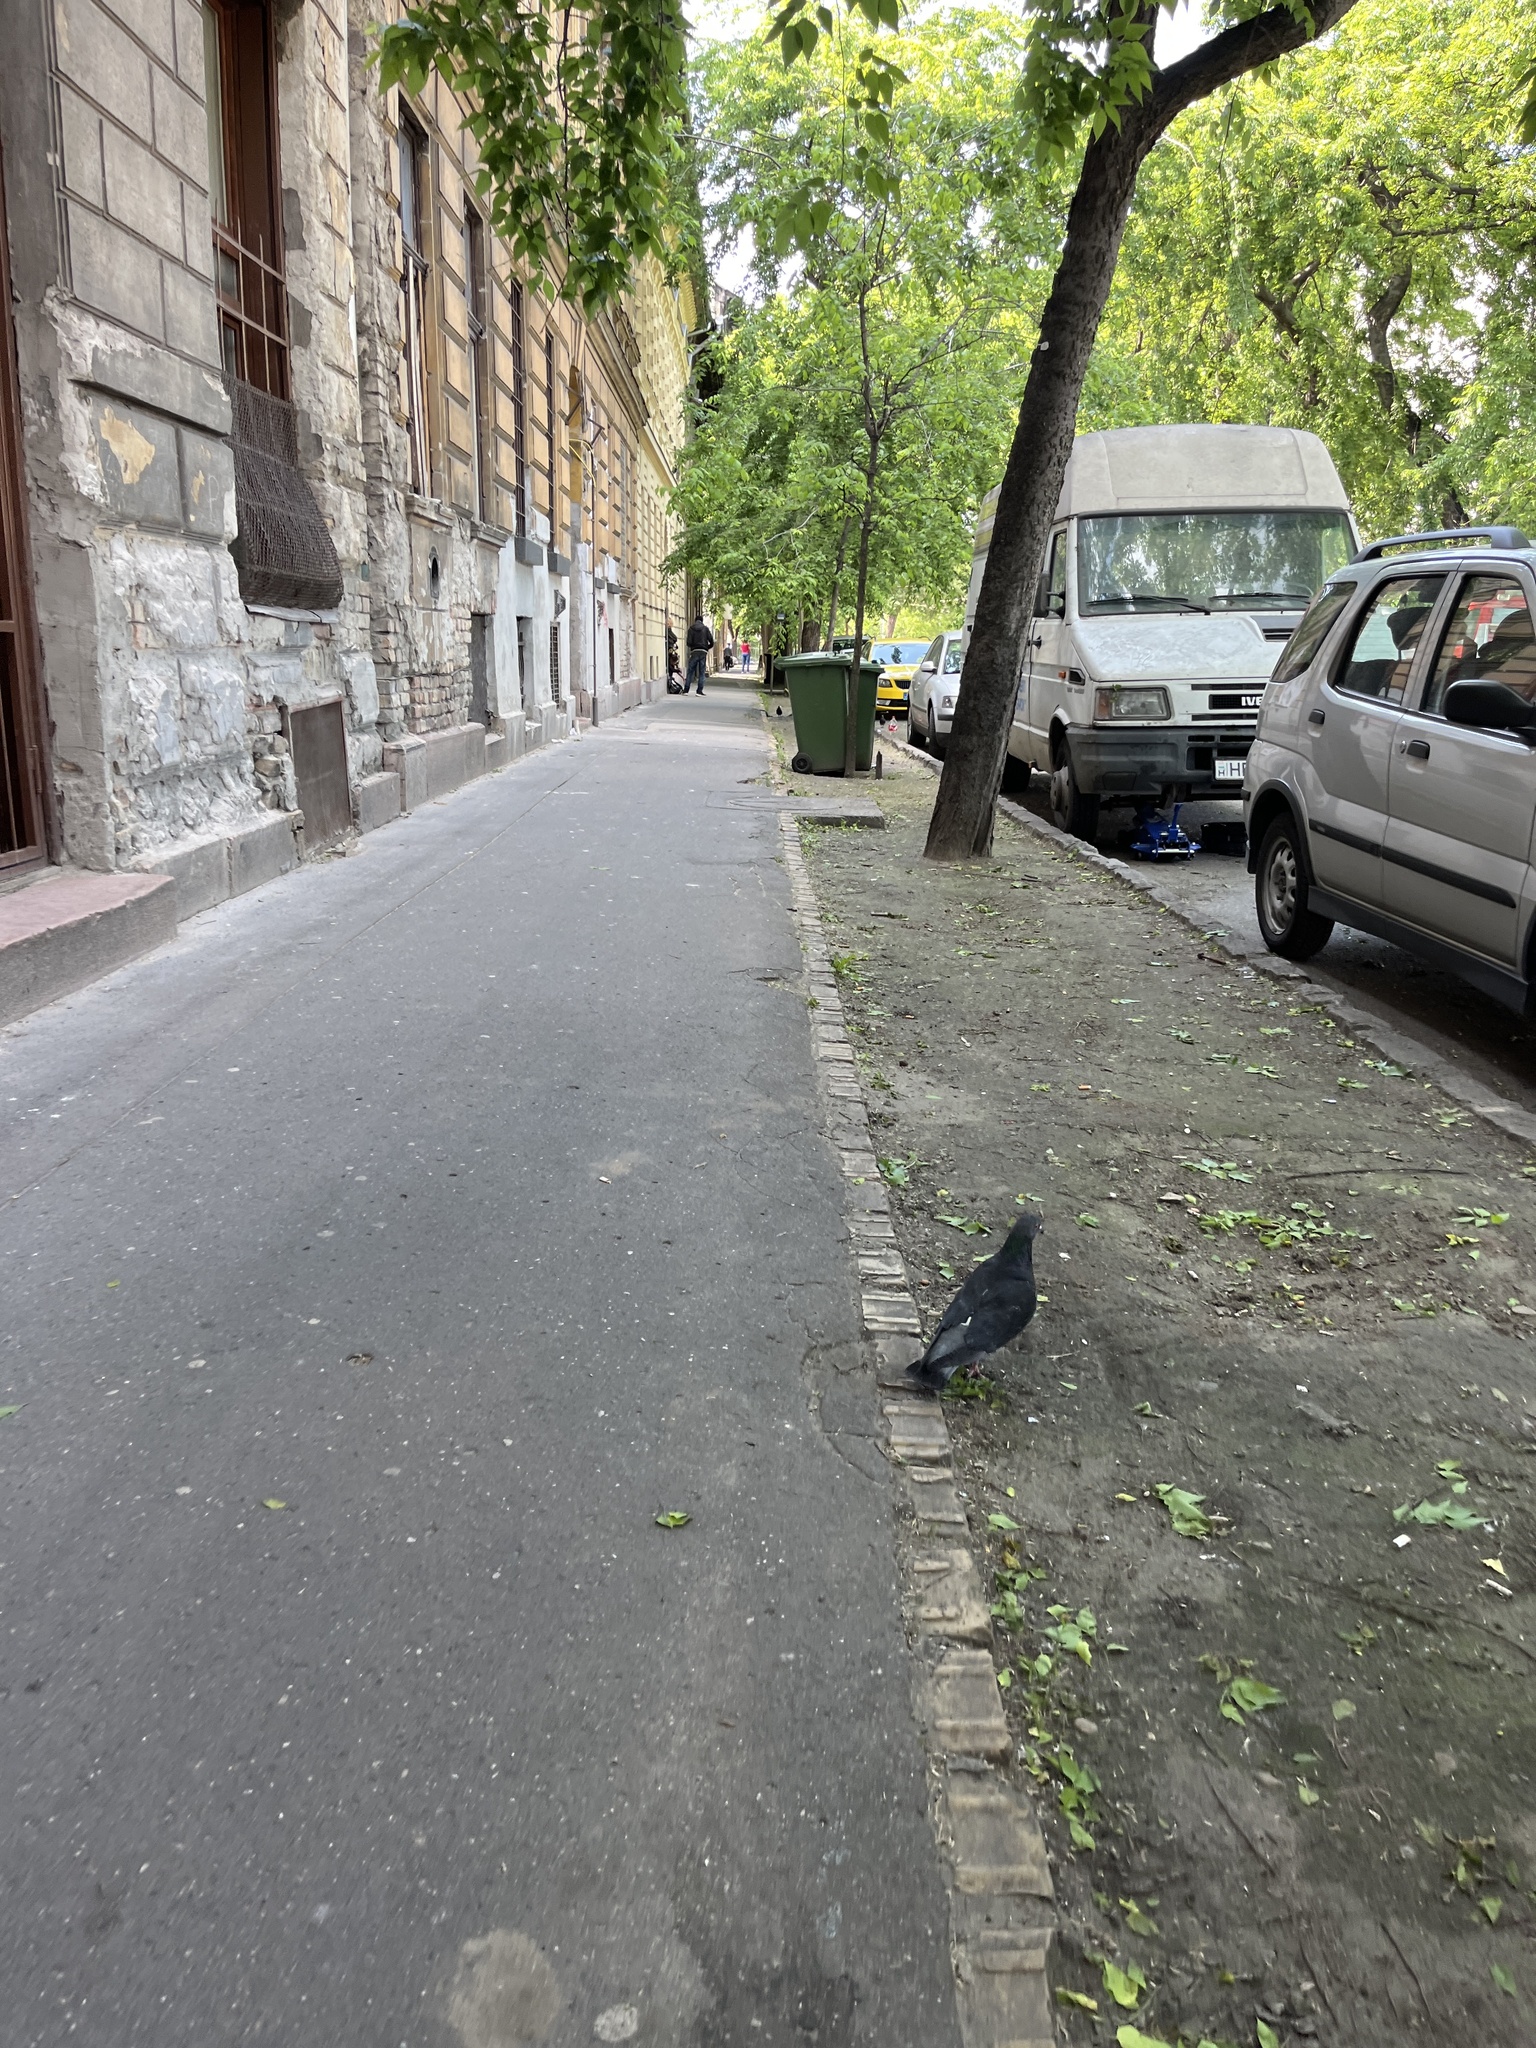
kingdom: Animalia
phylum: Chordata
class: Aves
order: Columbiformes
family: Columbidae
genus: Columba
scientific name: Columba livia
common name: Rock pigeon
